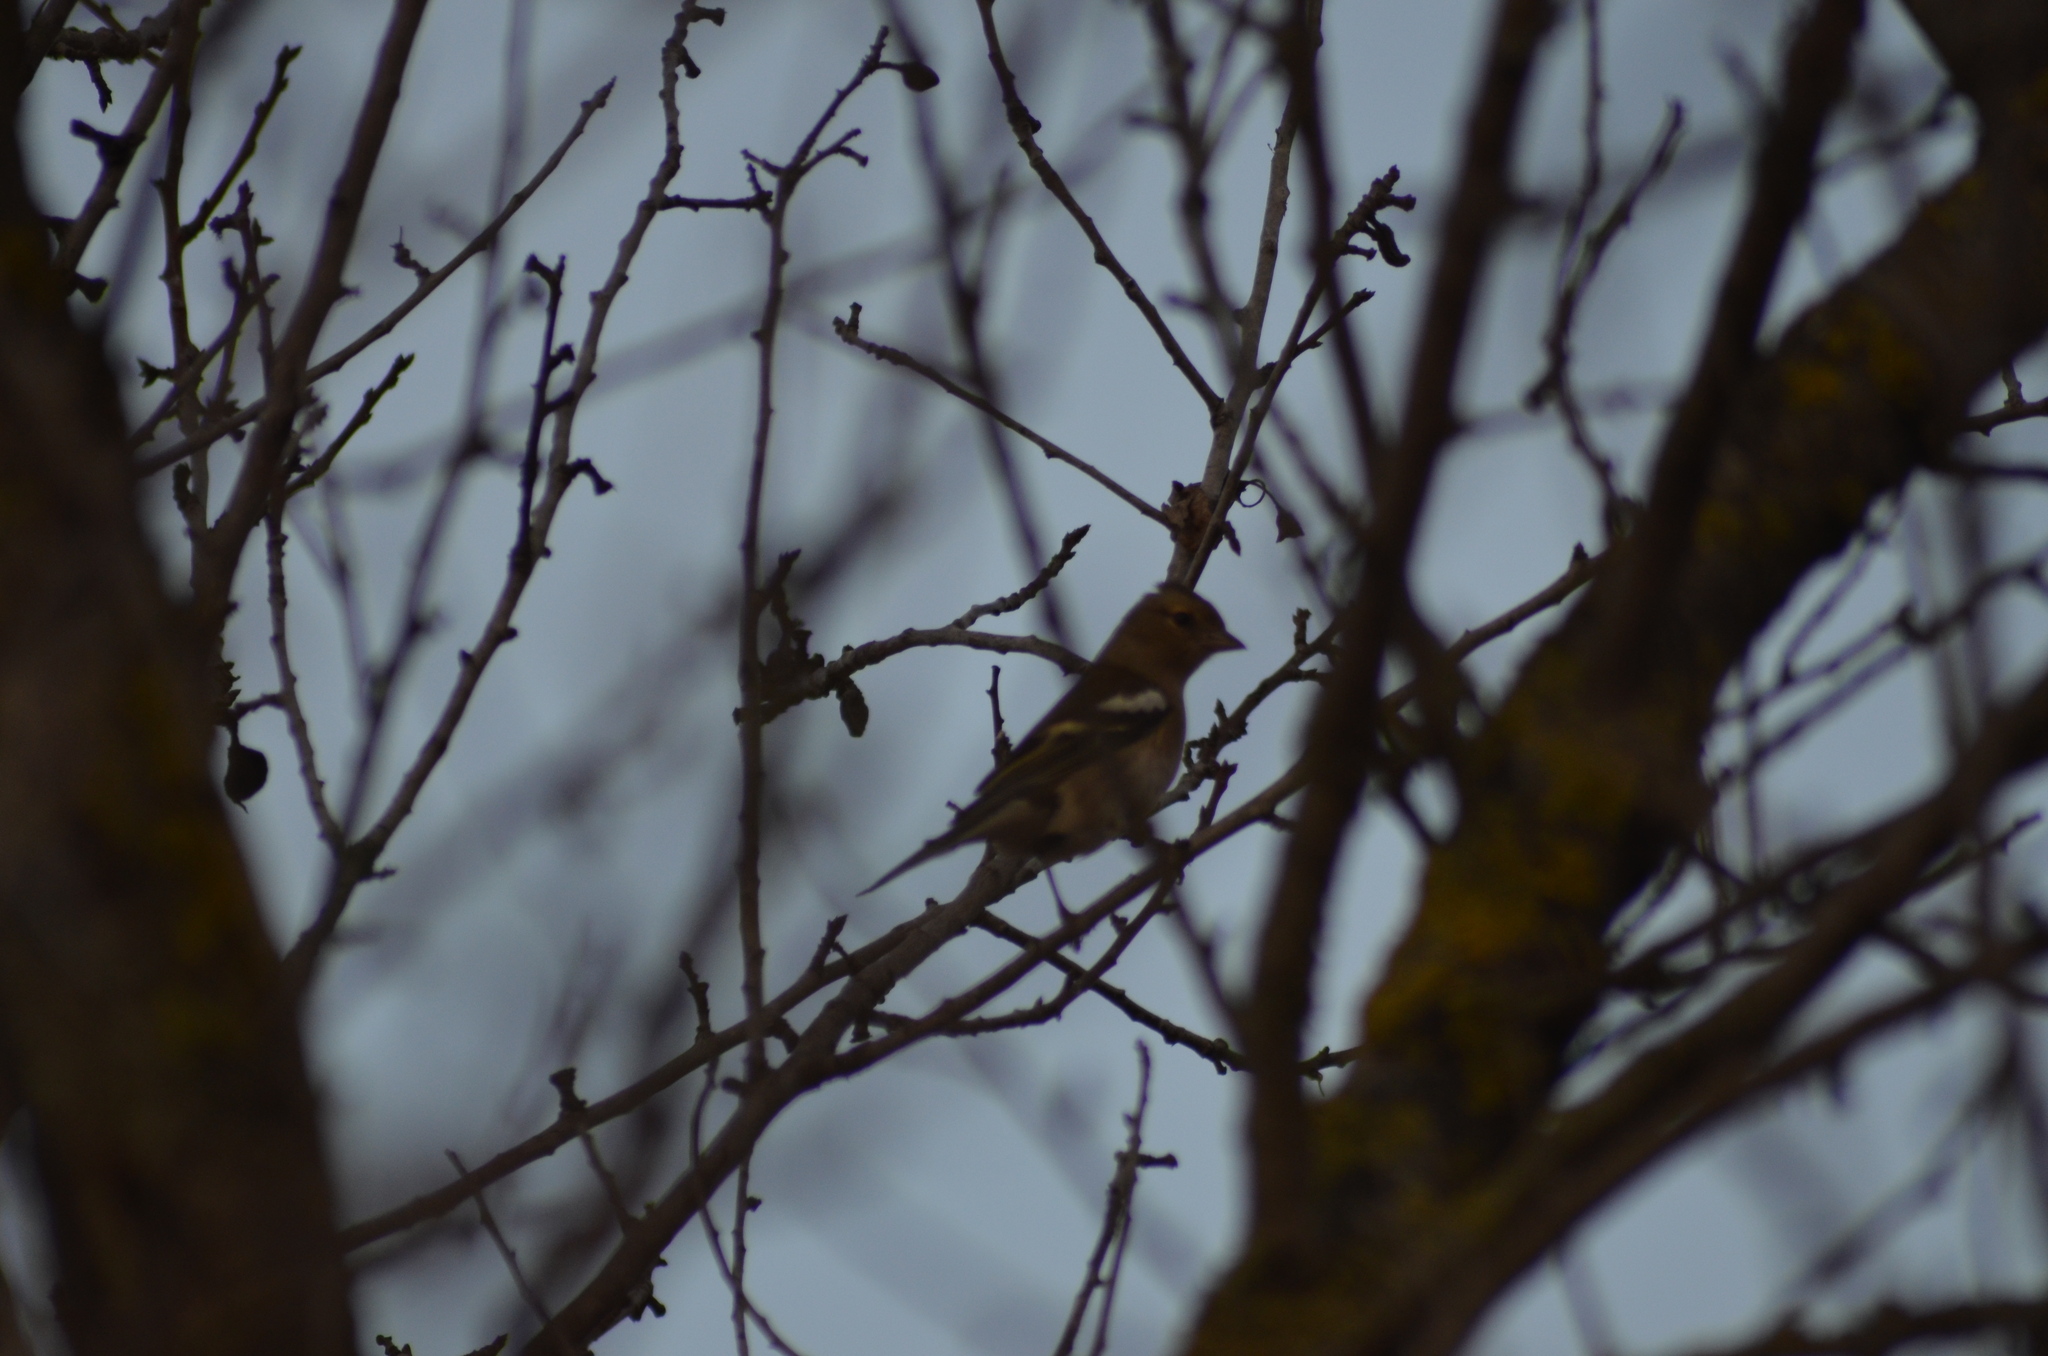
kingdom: Animalia
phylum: Chordata
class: Aves
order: Passeriformes
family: Fringillidae
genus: Fringilla
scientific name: Fringilla coelebs
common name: Common chaffinch
